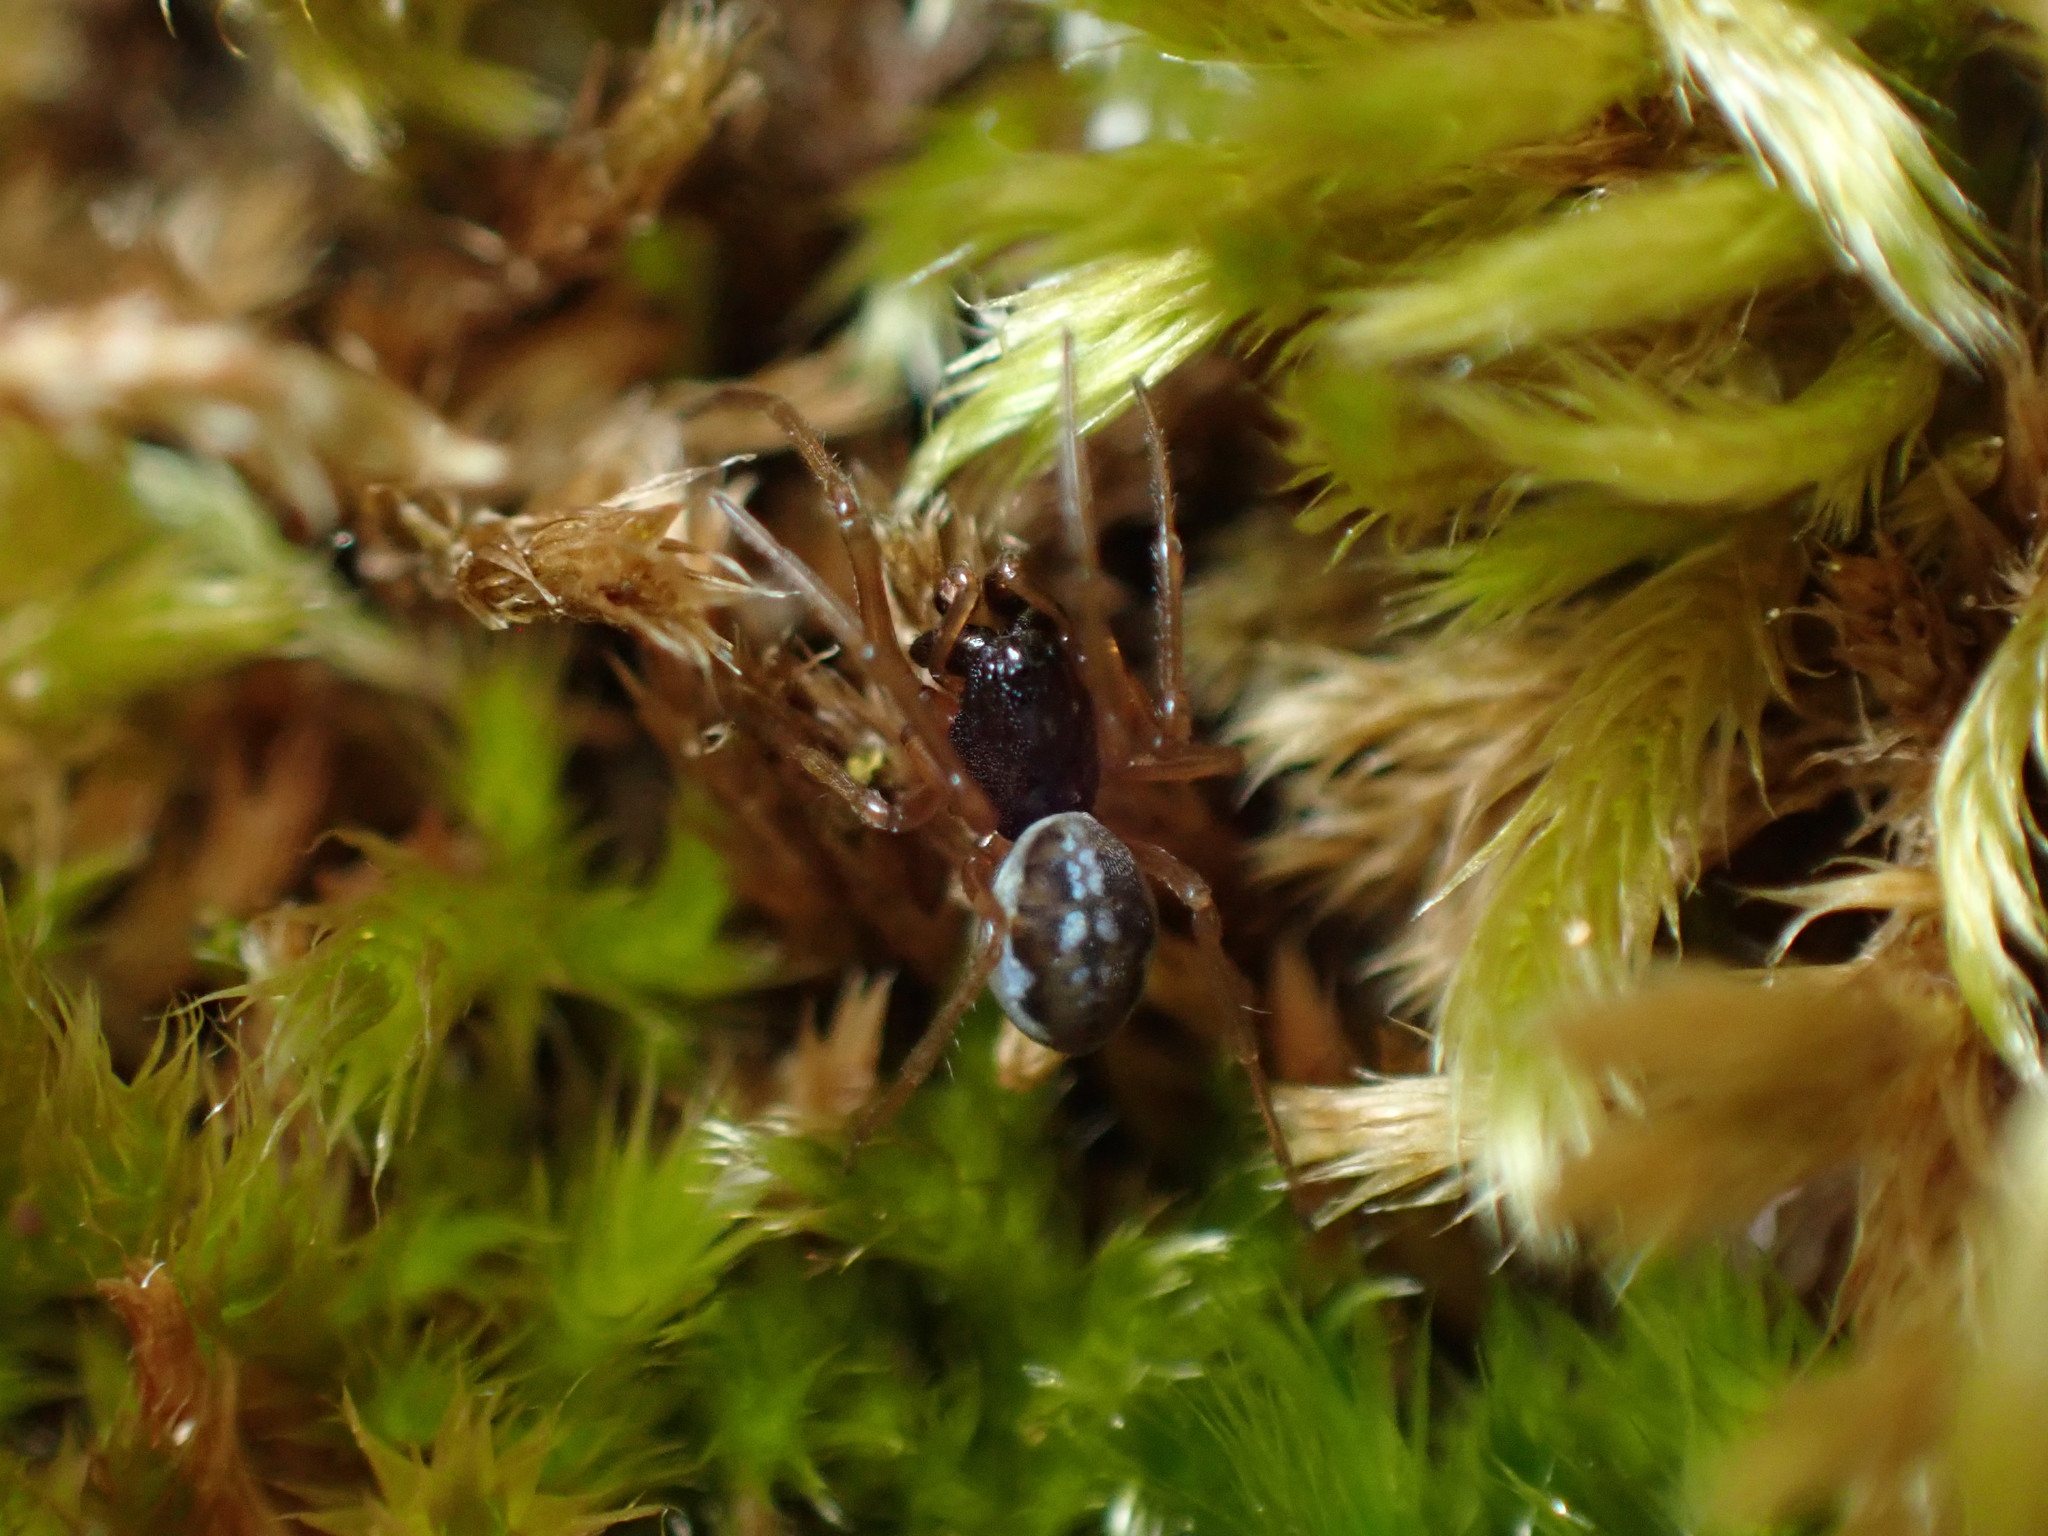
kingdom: Animalia
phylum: Arthropoda
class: Arachnida
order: Araneae
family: Tetragnathidae
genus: Pachygnatha
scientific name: Pachygnatha degeeri
